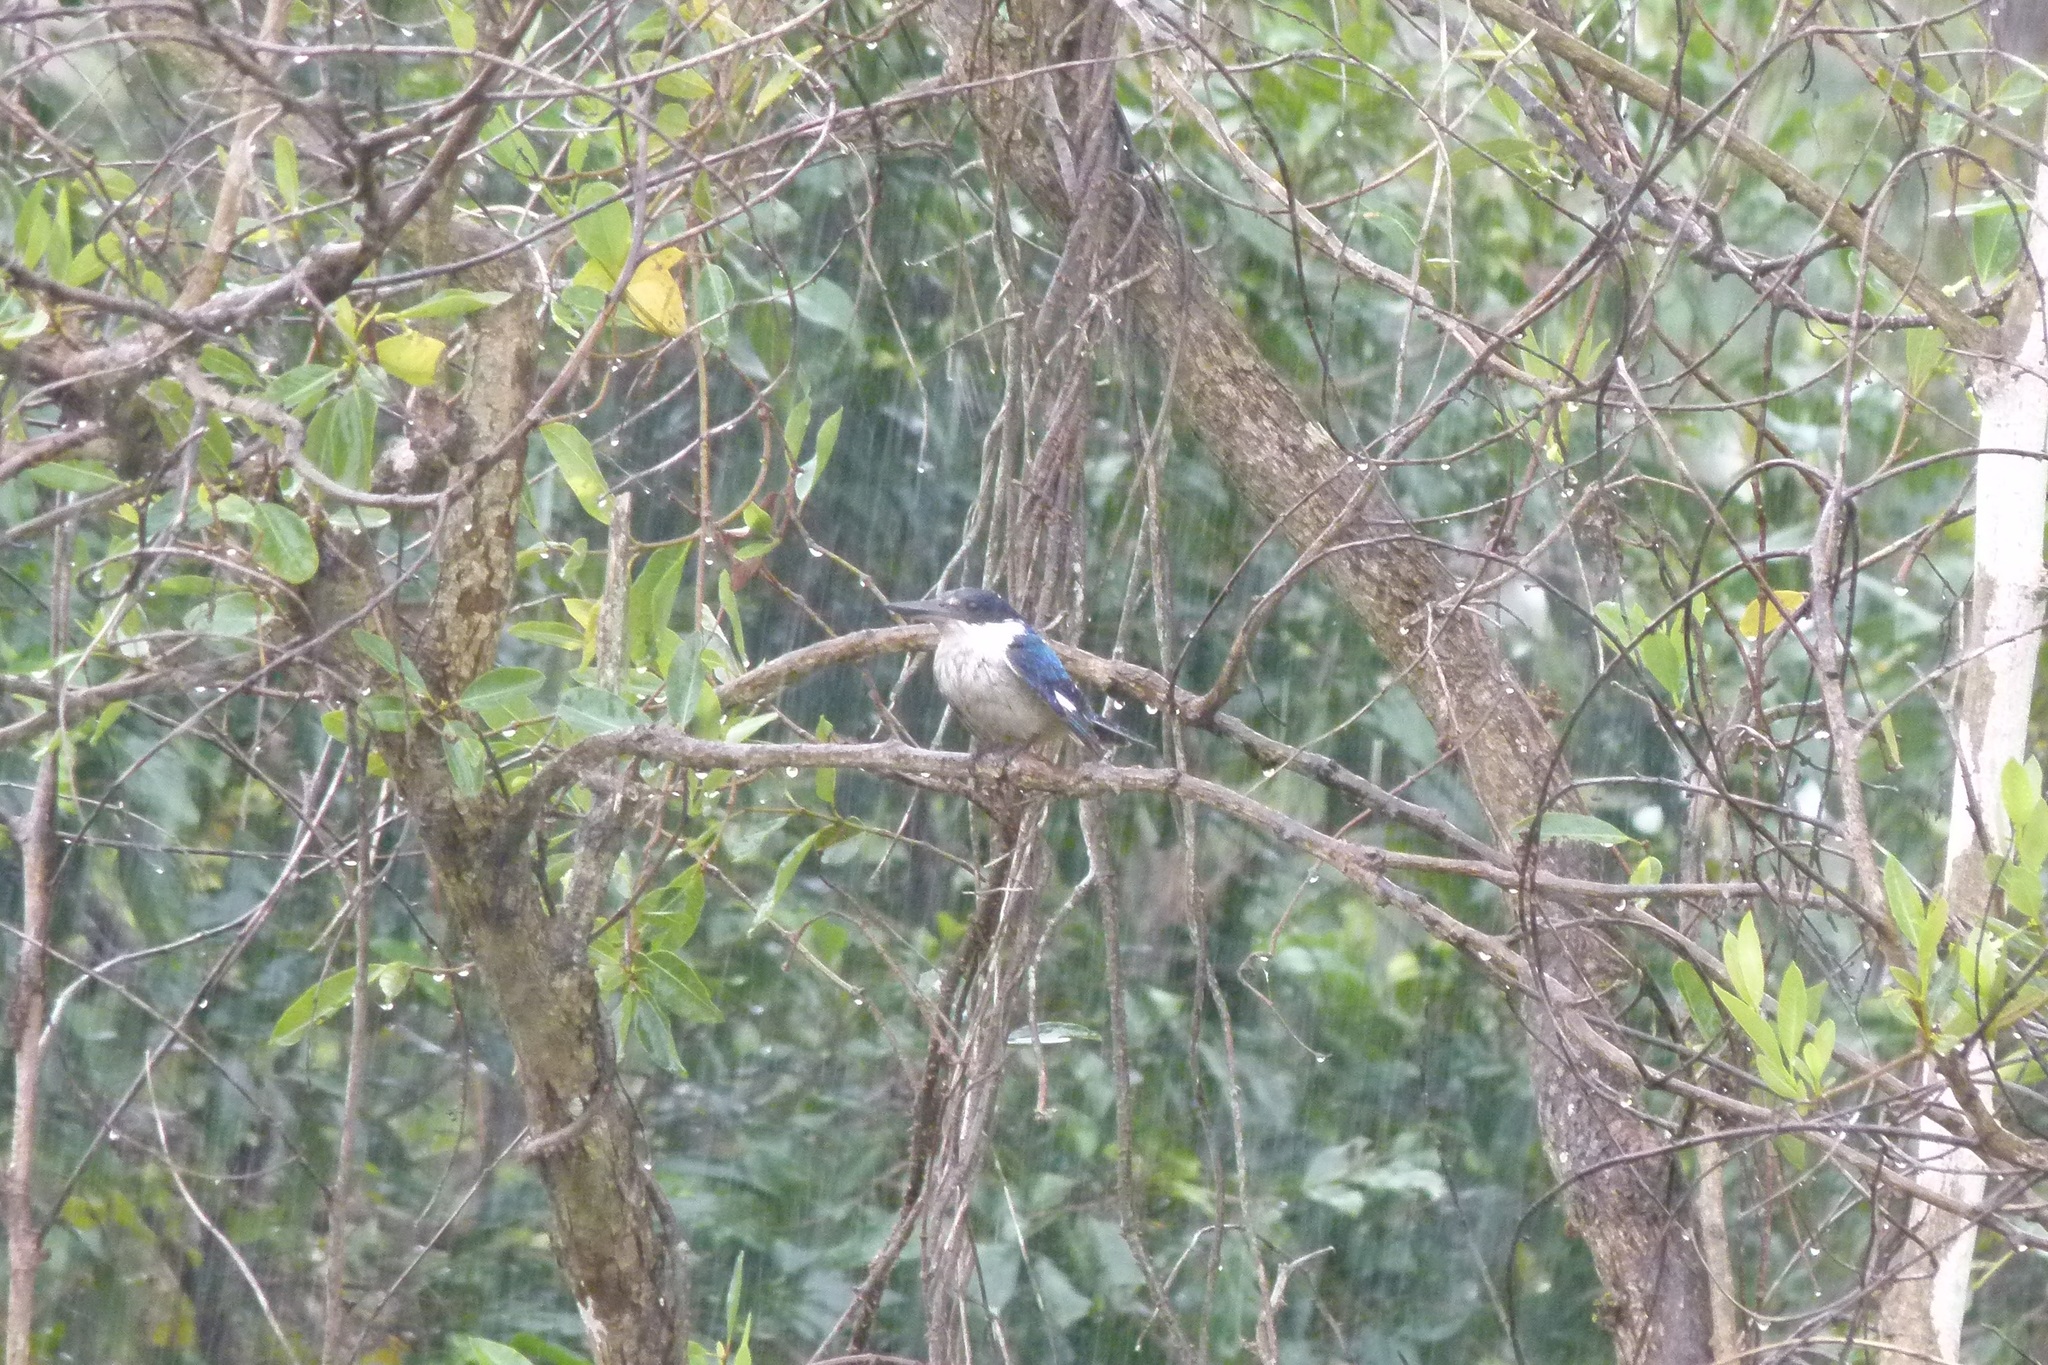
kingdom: Animalia
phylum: Chordata
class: Aves
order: Coraciiformes
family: Alcedinidae
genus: Todiramphus
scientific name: Todiramphus macleayii
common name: Forest kingfisher
